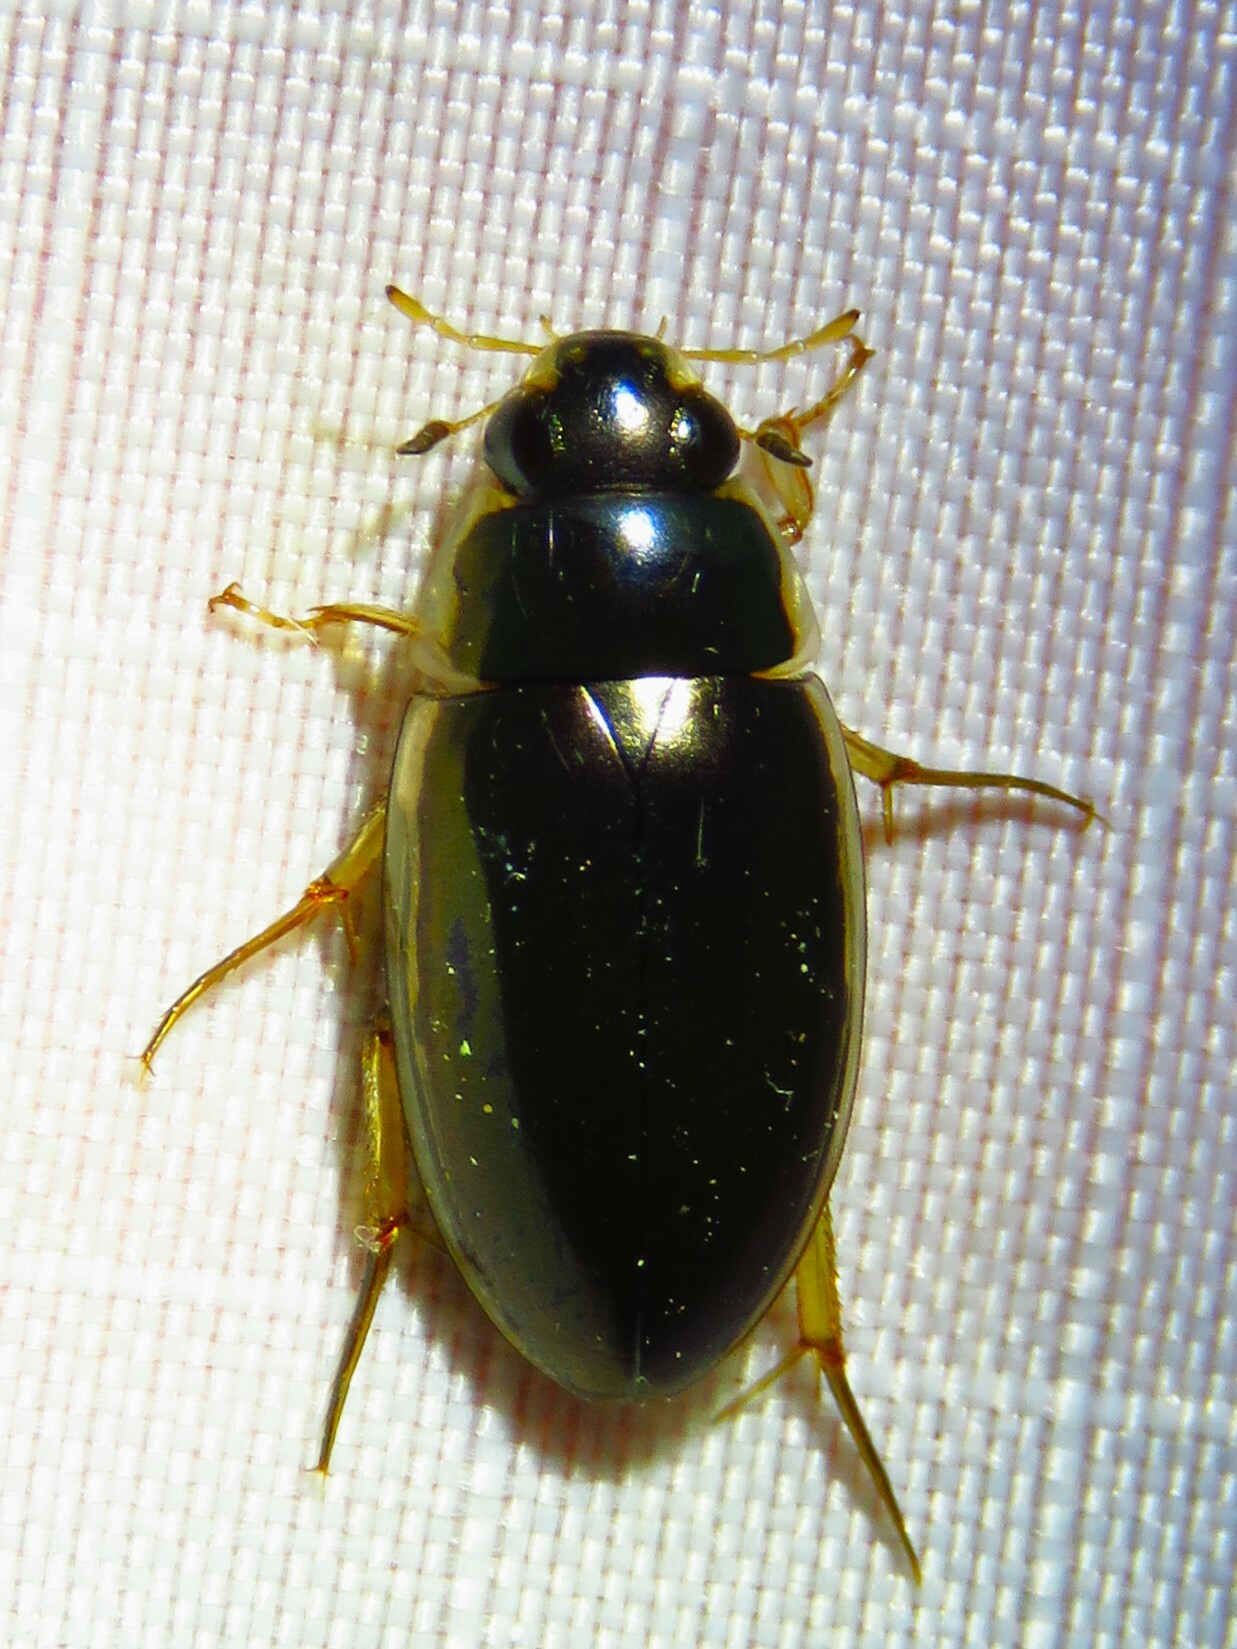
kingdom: Animalia
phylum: Arthropoda
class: Insecta
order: Coleoptera
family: Hydrophilidae
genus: Tropisternus
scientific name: Tropisternus lateralis
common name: Lateral-banded water scavenger beetle
